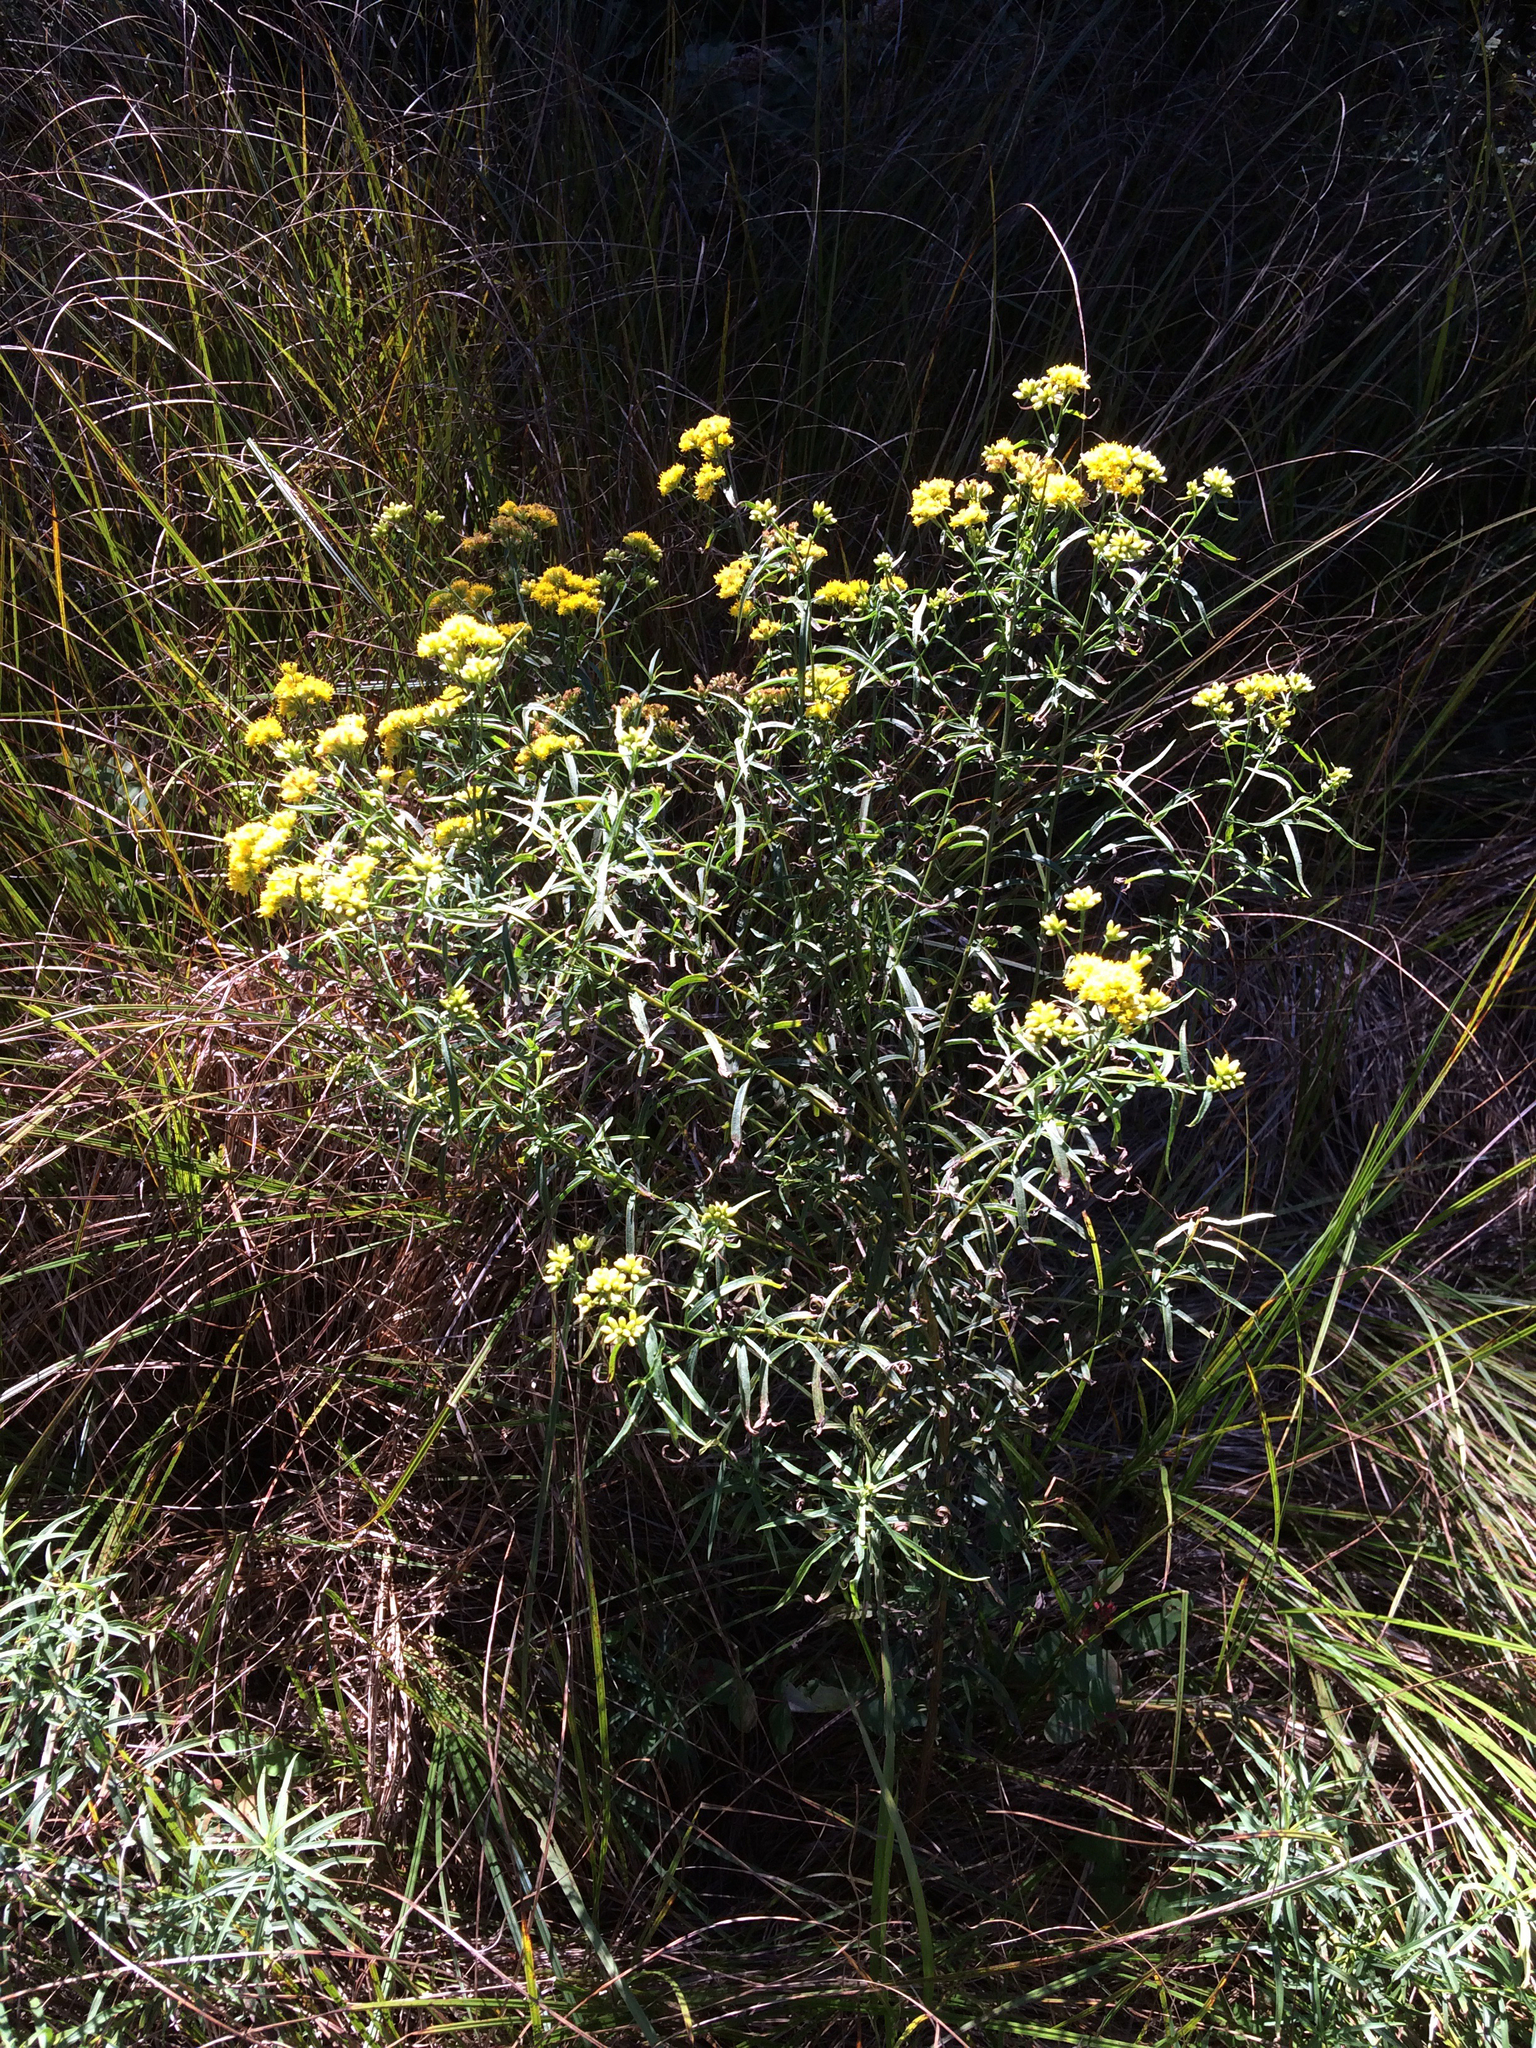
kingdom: Plantae
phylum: Tracheophyta
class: Magnoliopsida
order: Asterales
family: Asteraceae
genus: Euthamia
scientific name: Euthamia graminifolia
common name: Common goldentop
